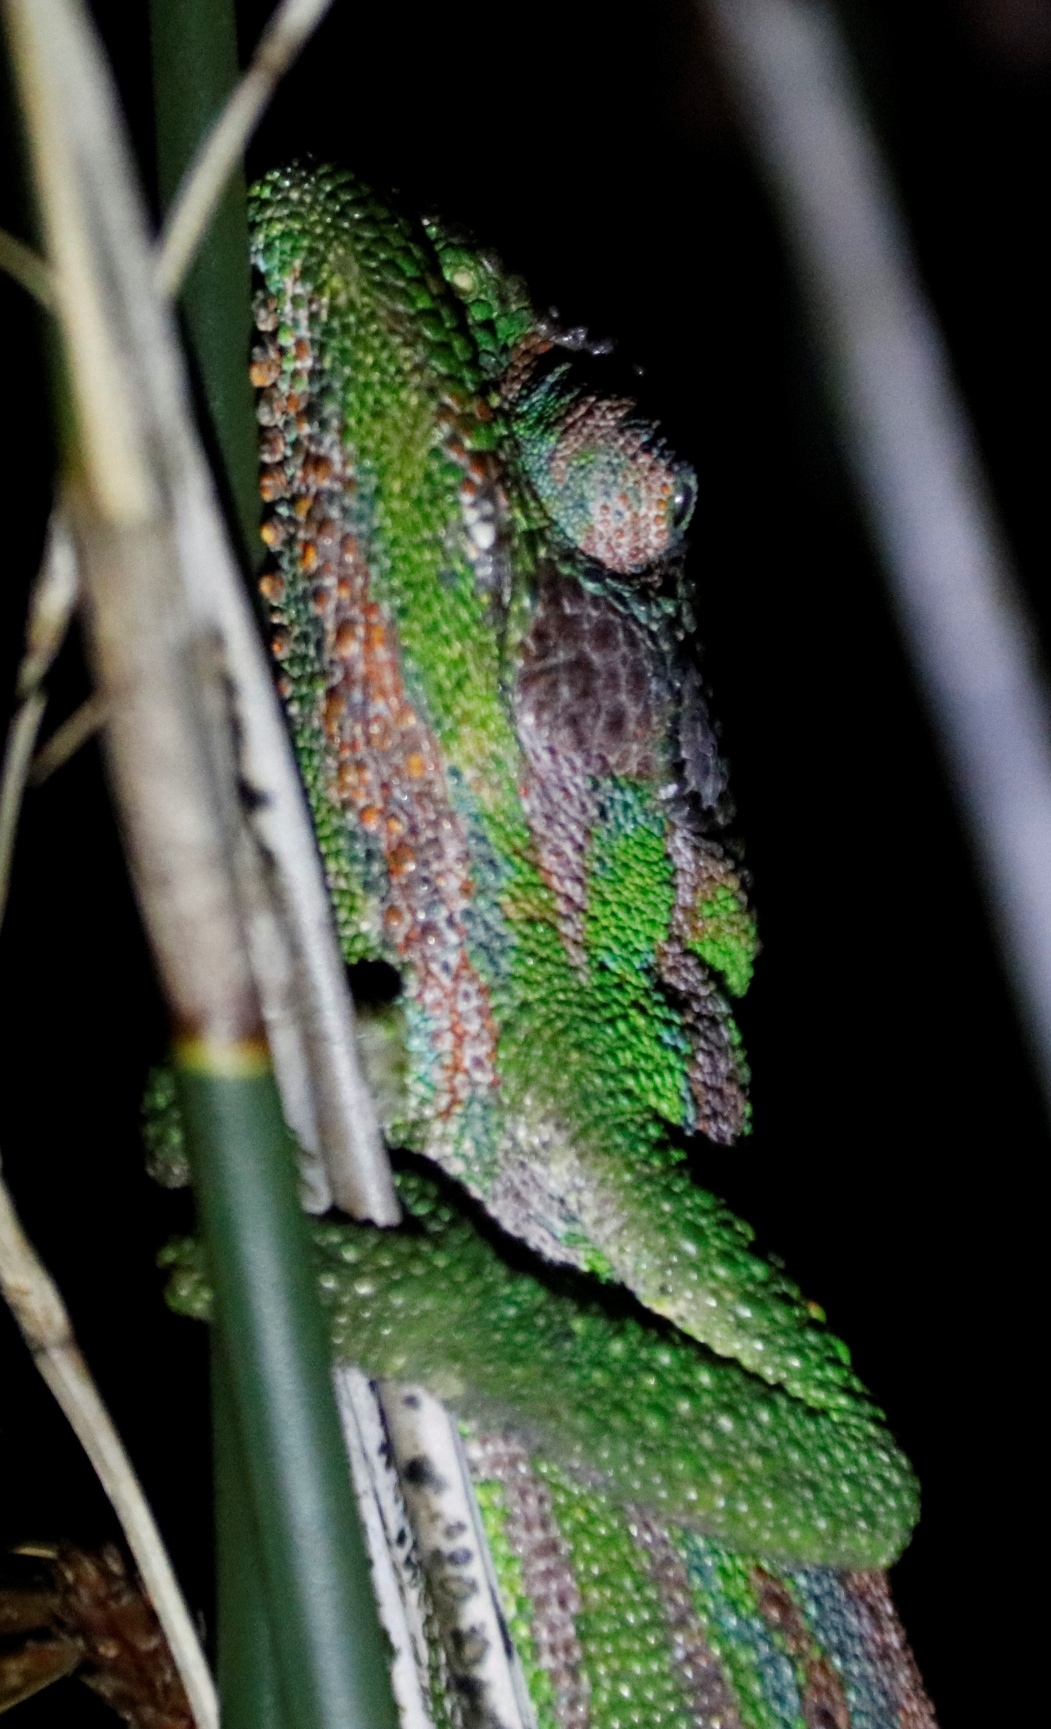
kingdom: Animalia
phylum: Chordata
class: Squamata
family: Chamaeleonidae
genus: Bradypodion
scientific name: Bradypodion pumilum
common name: Cape dwarf chameleon
